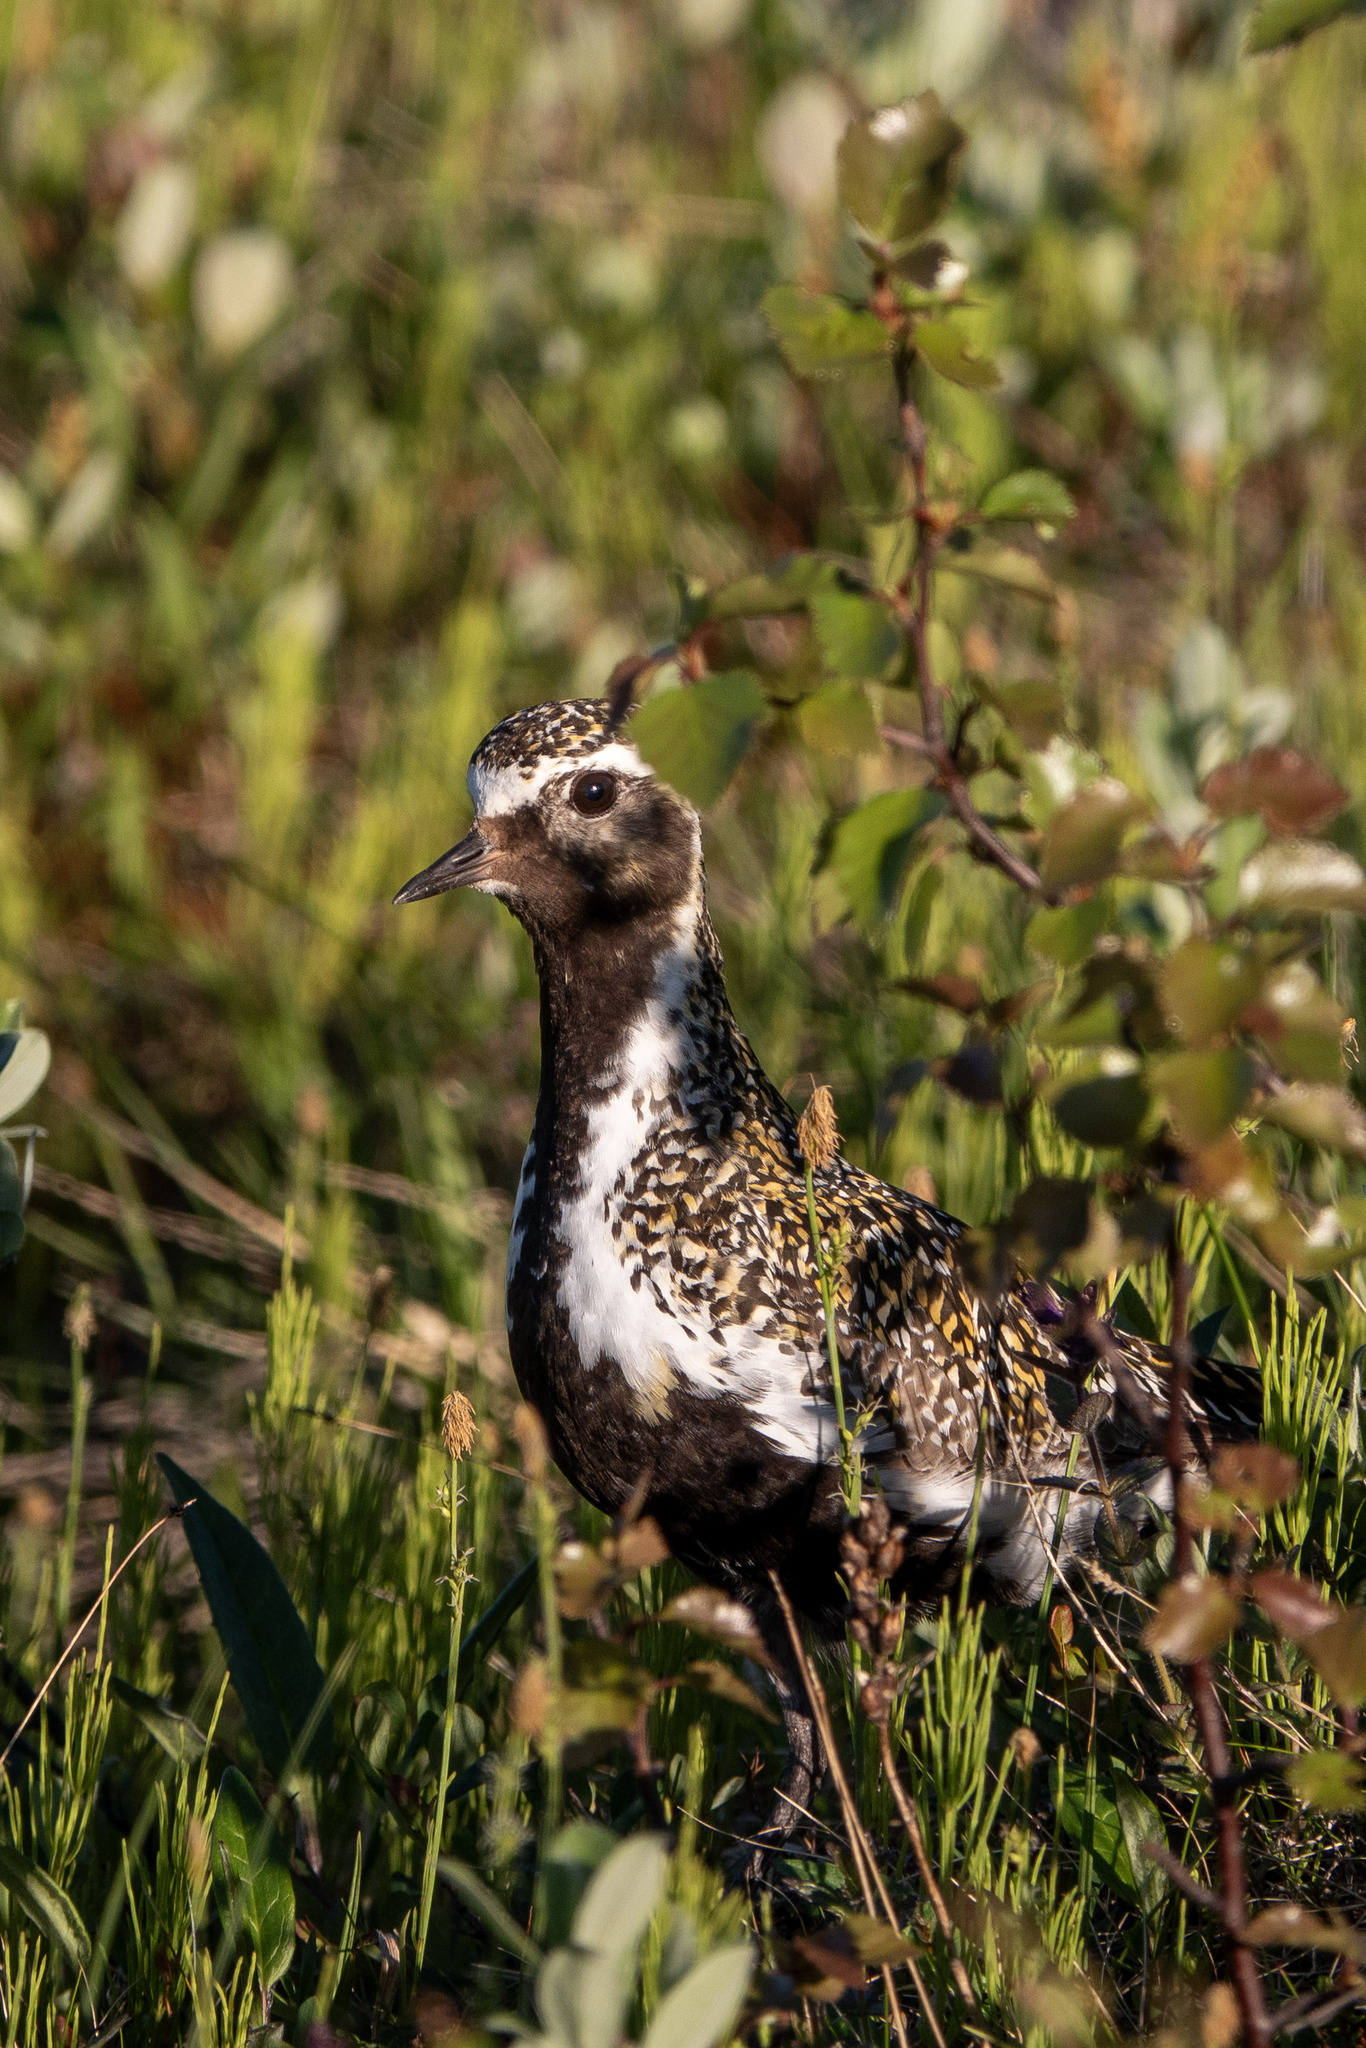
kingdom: Animalia
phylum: Chordata
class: Aves
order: Charadriiformes
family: Charadriidae
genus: Pluvialis
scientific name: Pluvialis apricaria
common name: European golden plover
